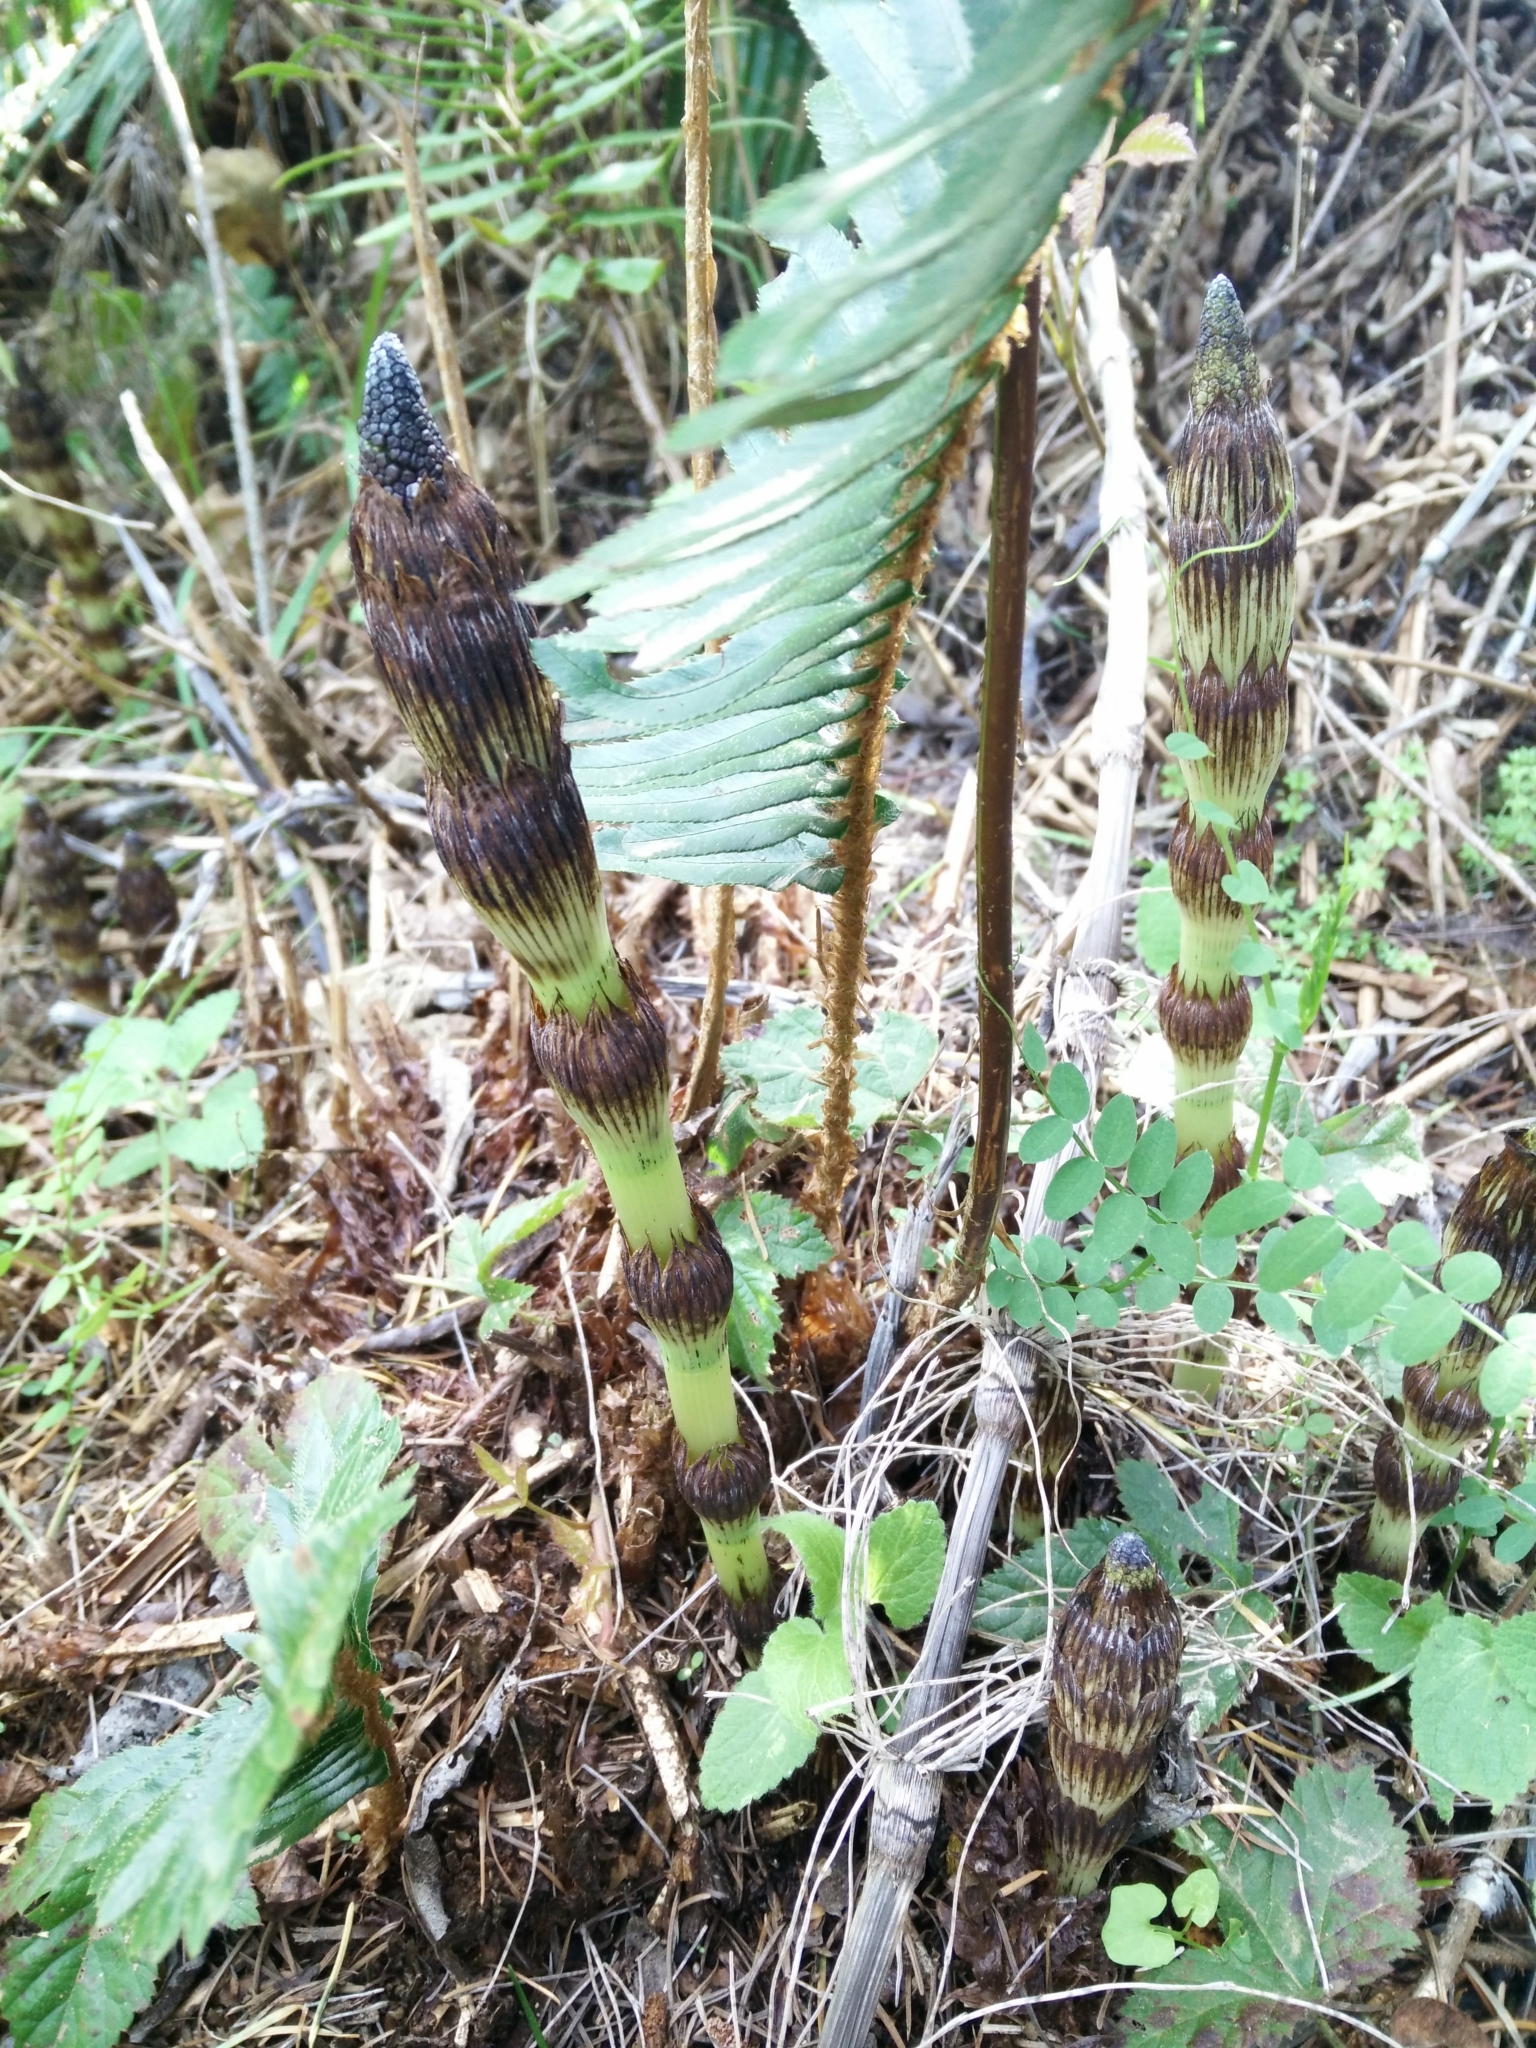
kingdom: Plantae
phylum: Tracheophyta
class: Polypodiopsida
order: Equisetales
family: Equisetaceae
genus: Equisetum
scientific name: Equisetum braunii
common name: Braun's horsetail
